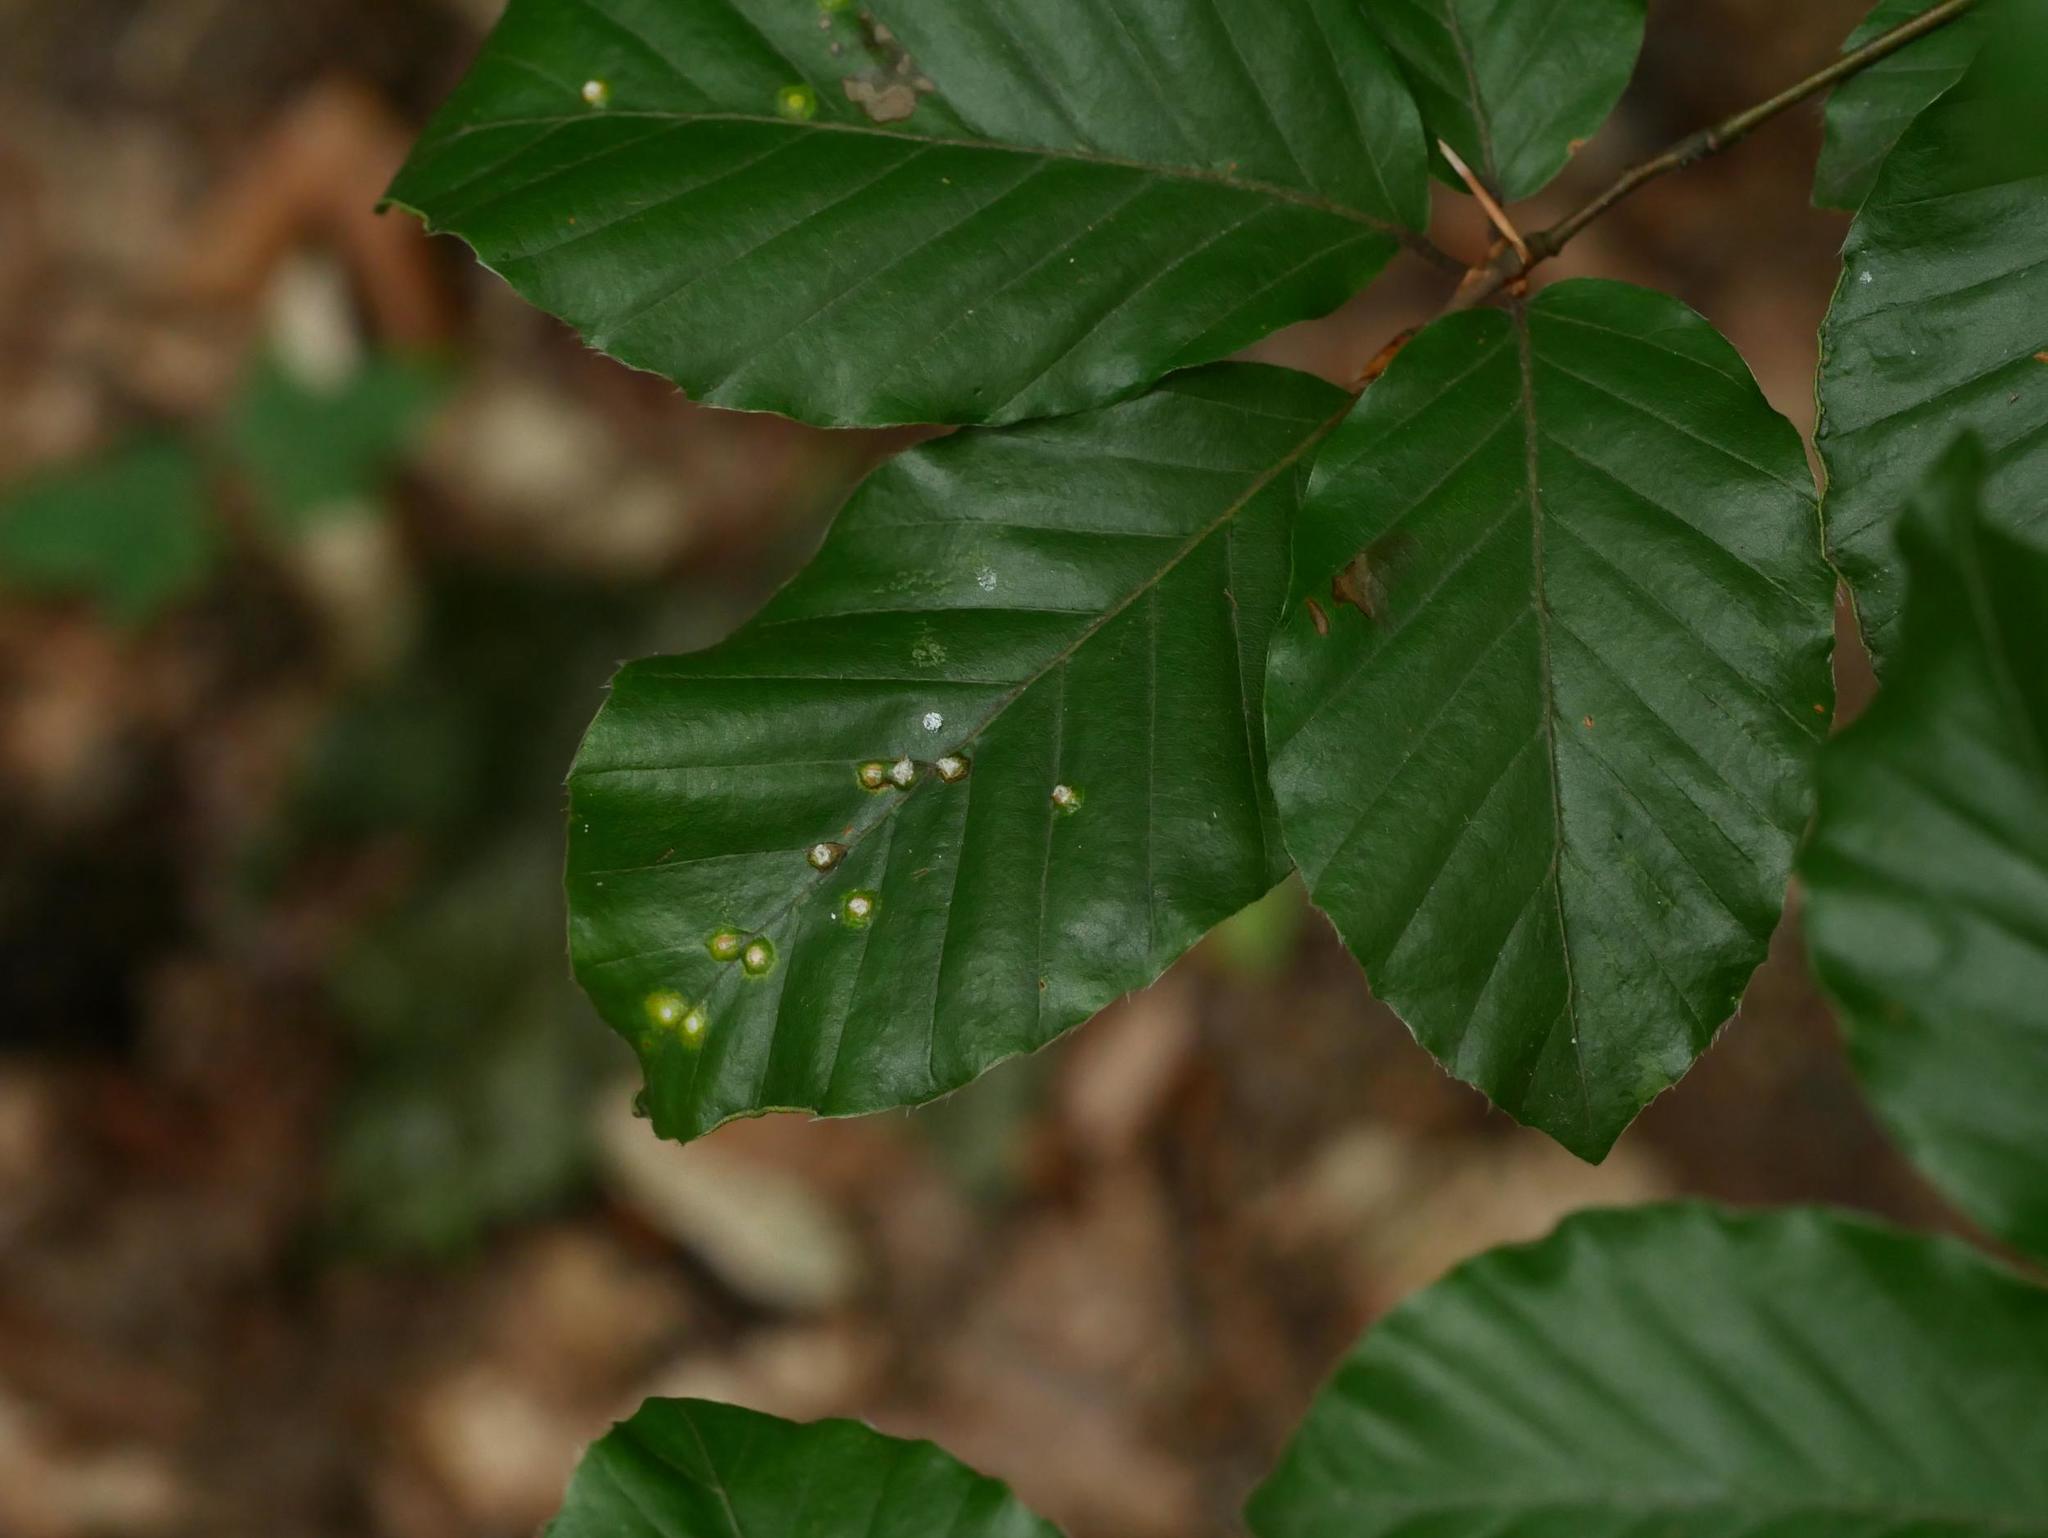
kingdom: Plantae
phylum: Tracheophyta
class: Magnoliopsida
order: Fagales
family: Fagaceae
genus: Fagus
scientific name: Fagus sylvatica
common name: Beech
